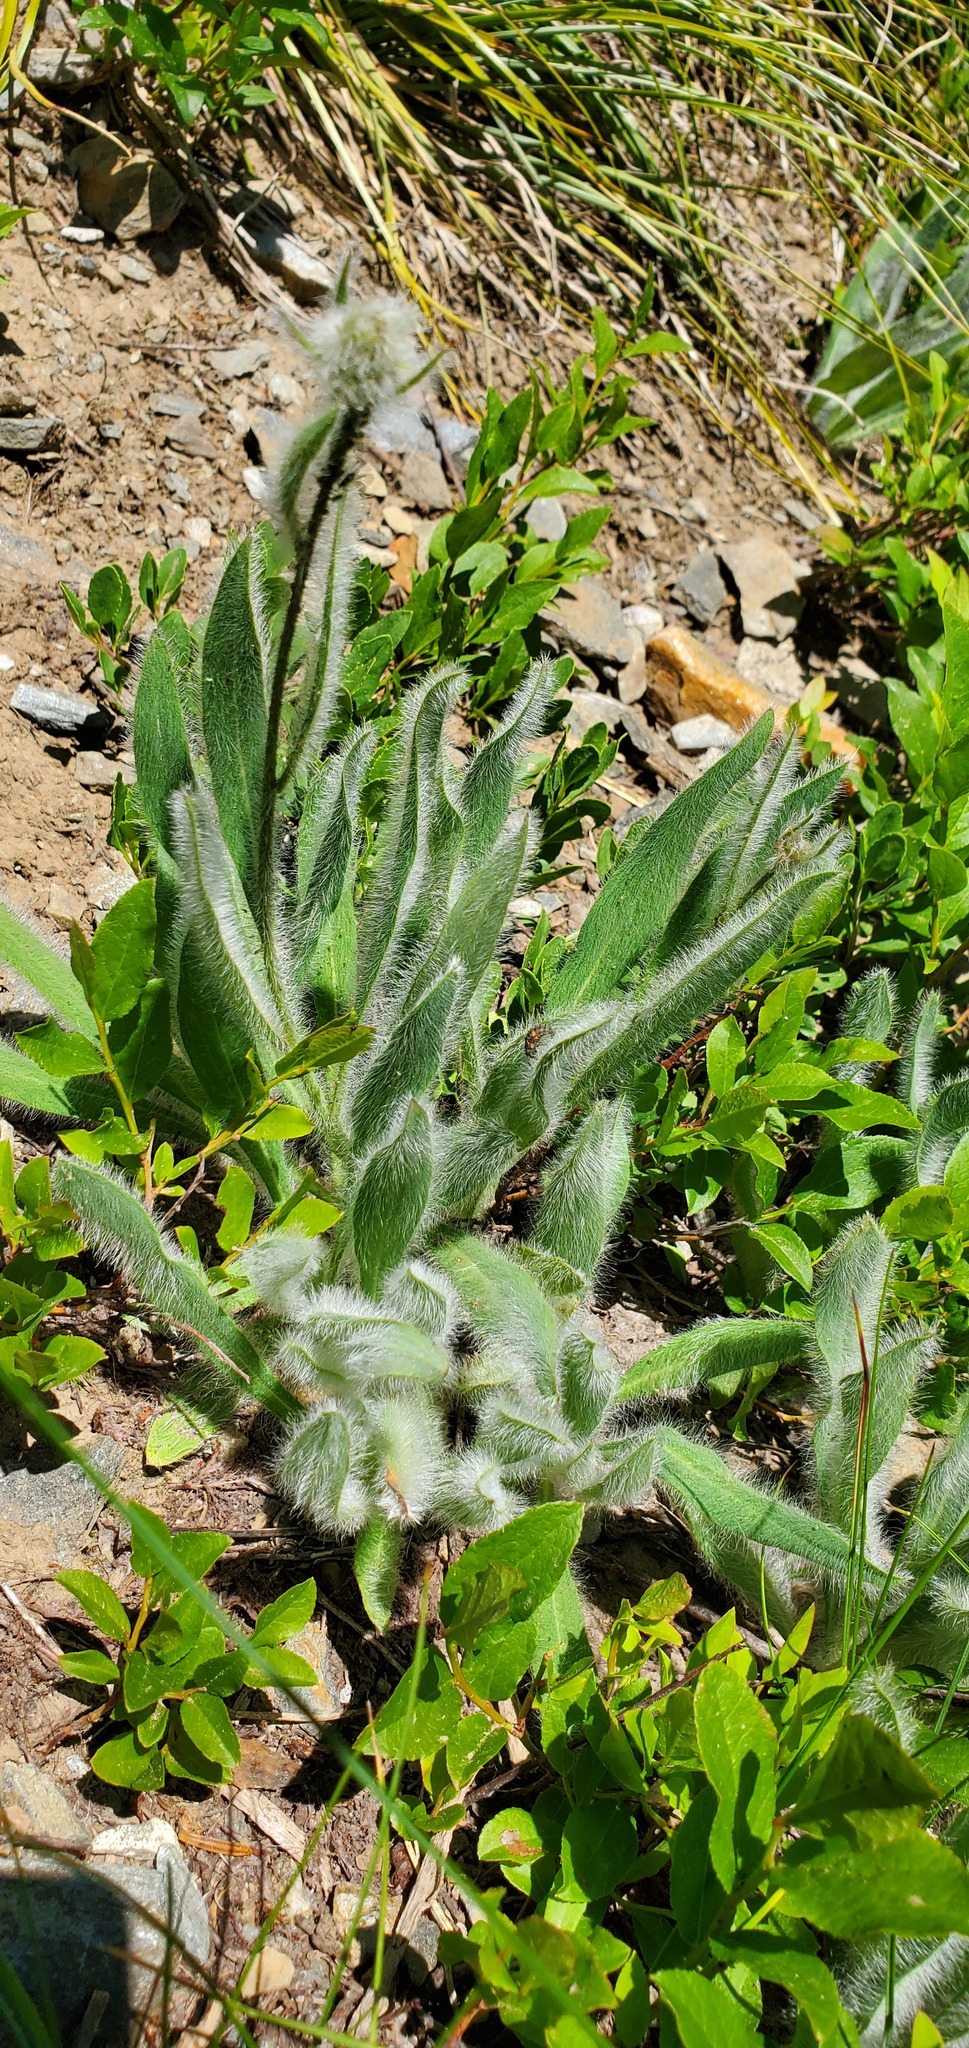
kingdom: Plantae
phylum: Tracheophyta
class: Magnoliopsida
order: Asterales
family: Asteraceae
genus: Hieracium
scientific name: Hieracium scouleri
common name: Hound's-tongue hawkweed
